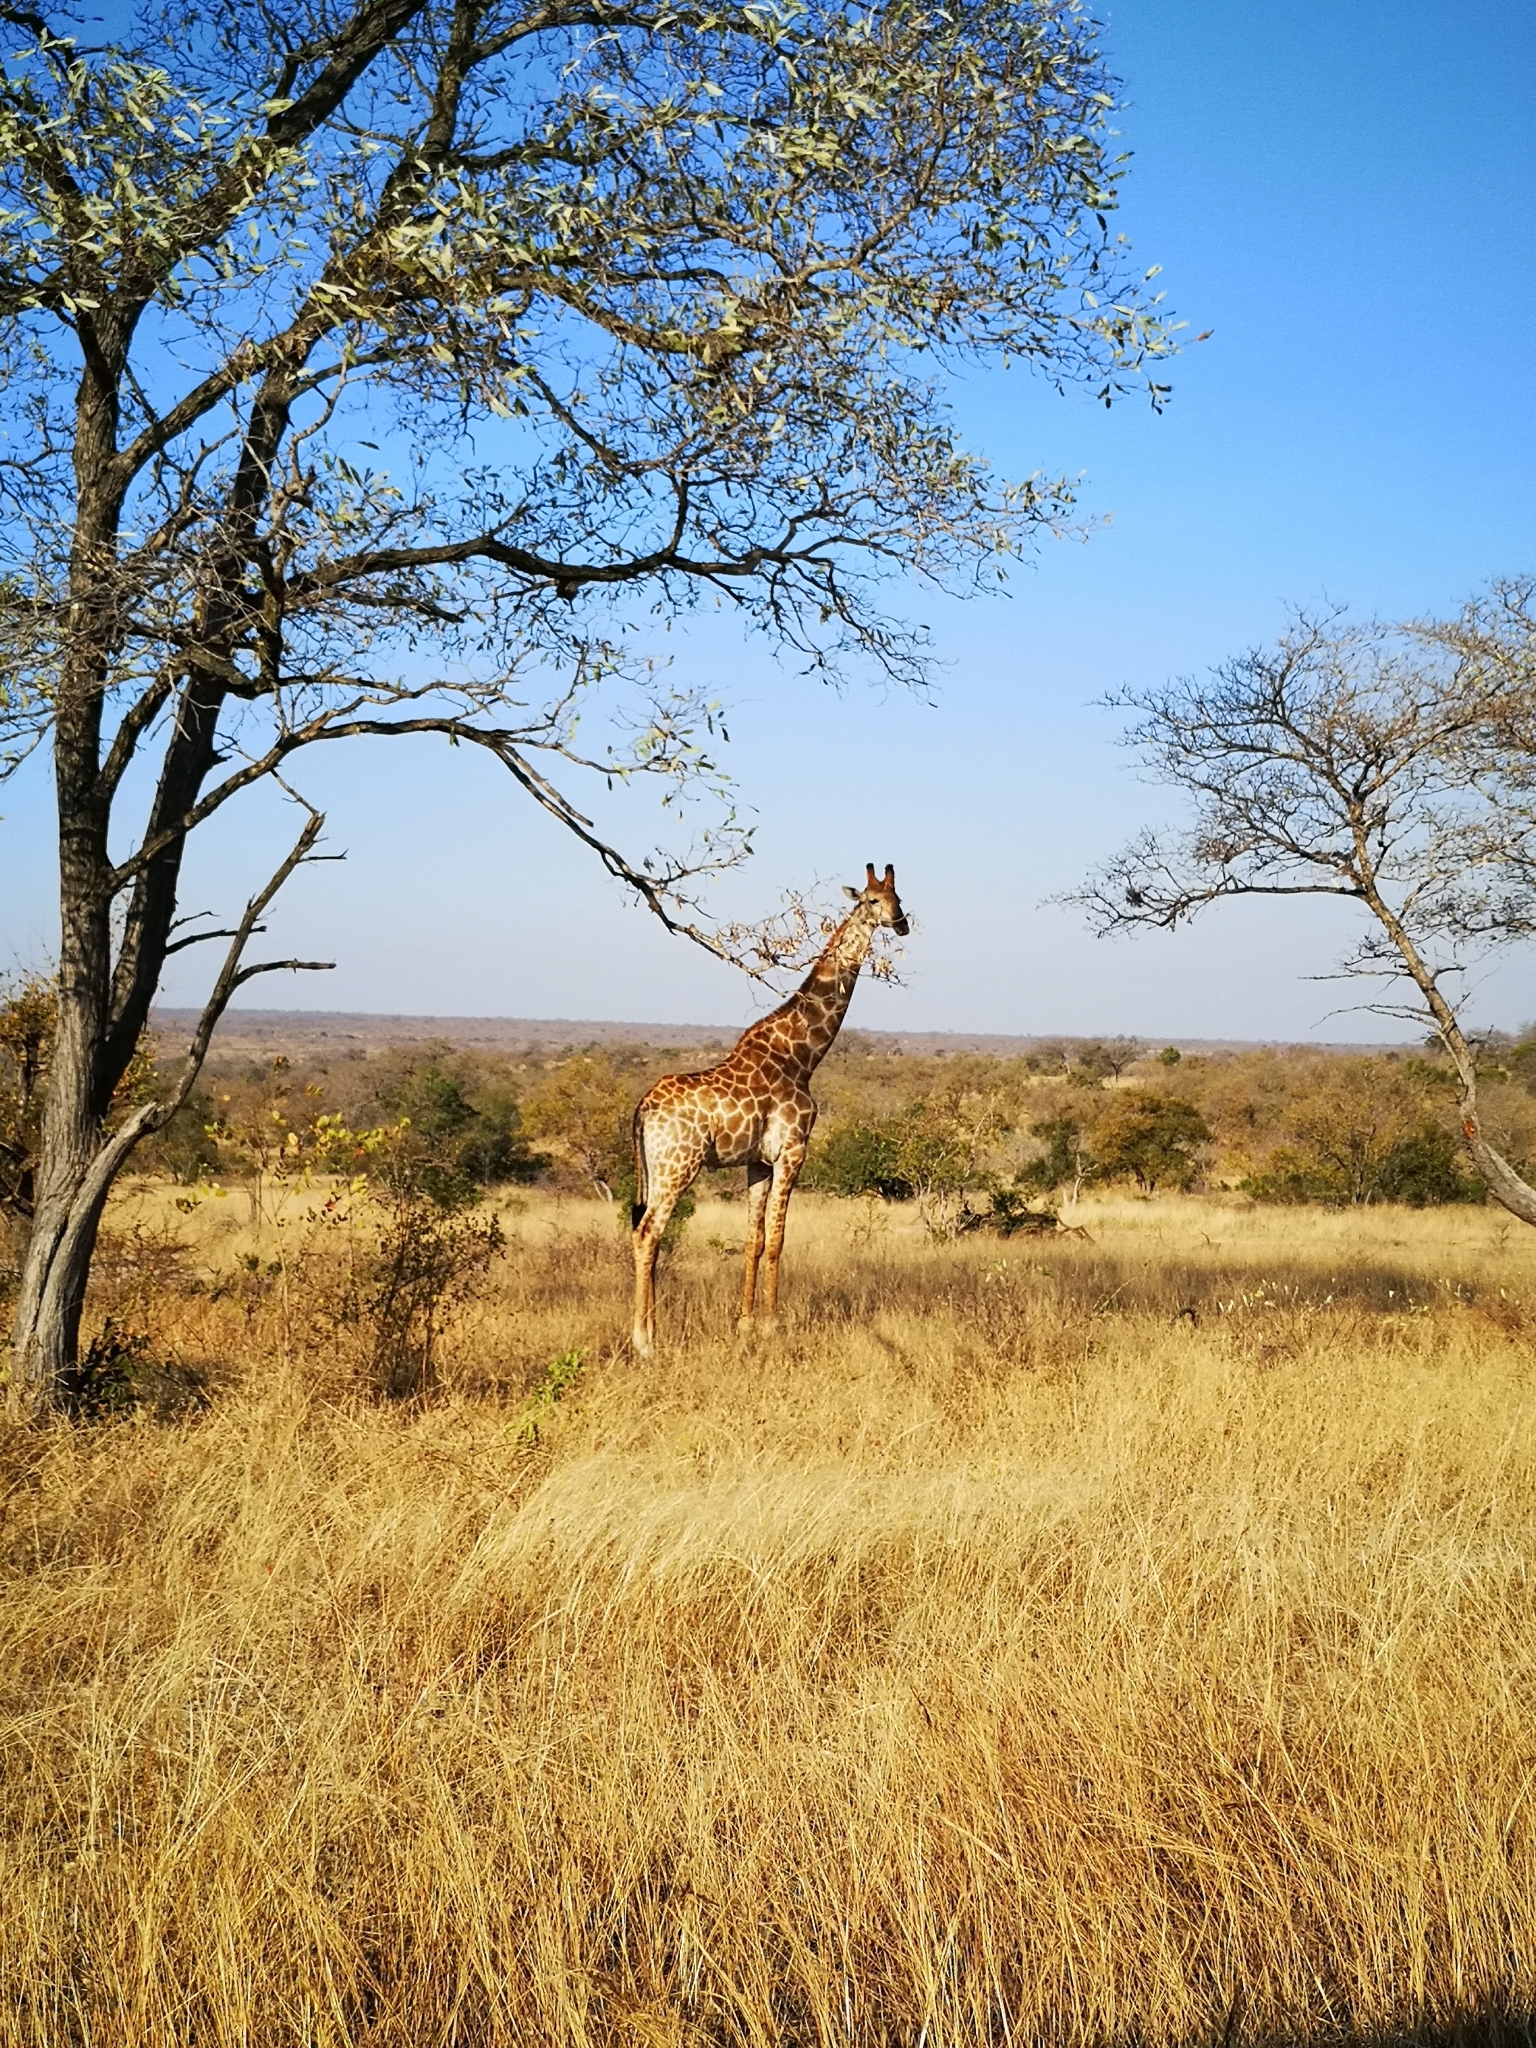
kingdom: Animalia
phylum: Chordata
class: Mammalia
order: Artiodactyla
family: Giraffidae
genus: Giraffa
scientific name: Giraffa giraffa
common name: Southern giraffe
